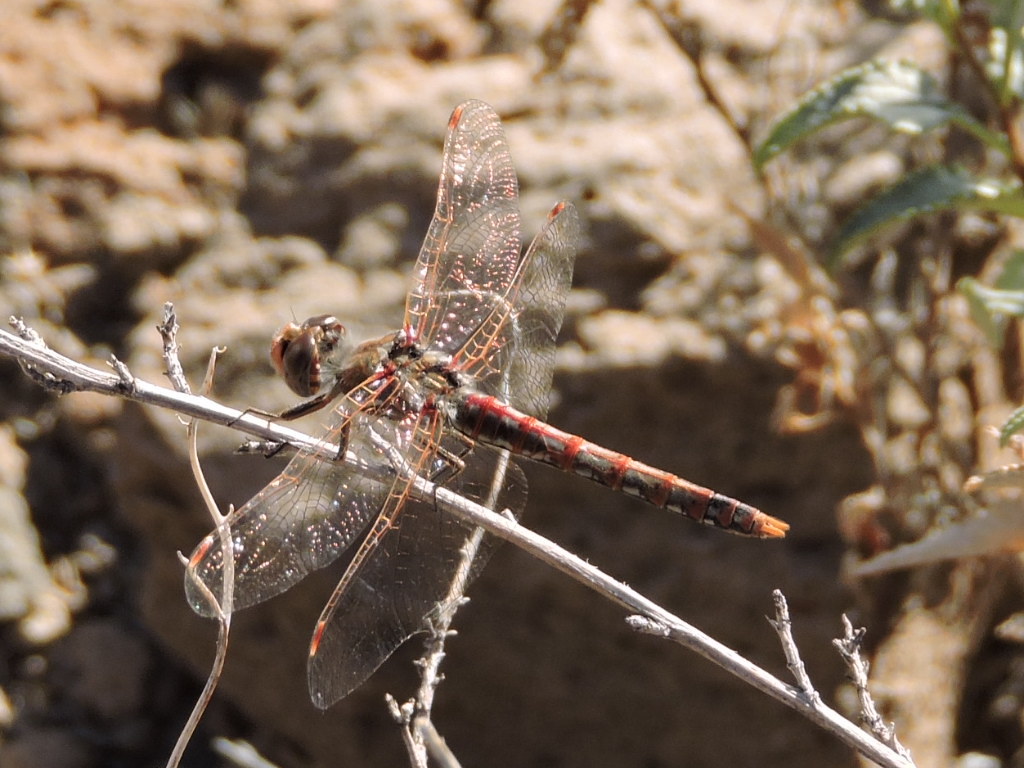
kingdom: Animalia
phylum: Arthropoda
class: Insecta
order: Odonata
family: Libellulidae
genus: Sympetrum
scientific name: Sympetrum corruptum
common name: Variegated meadowhawk
